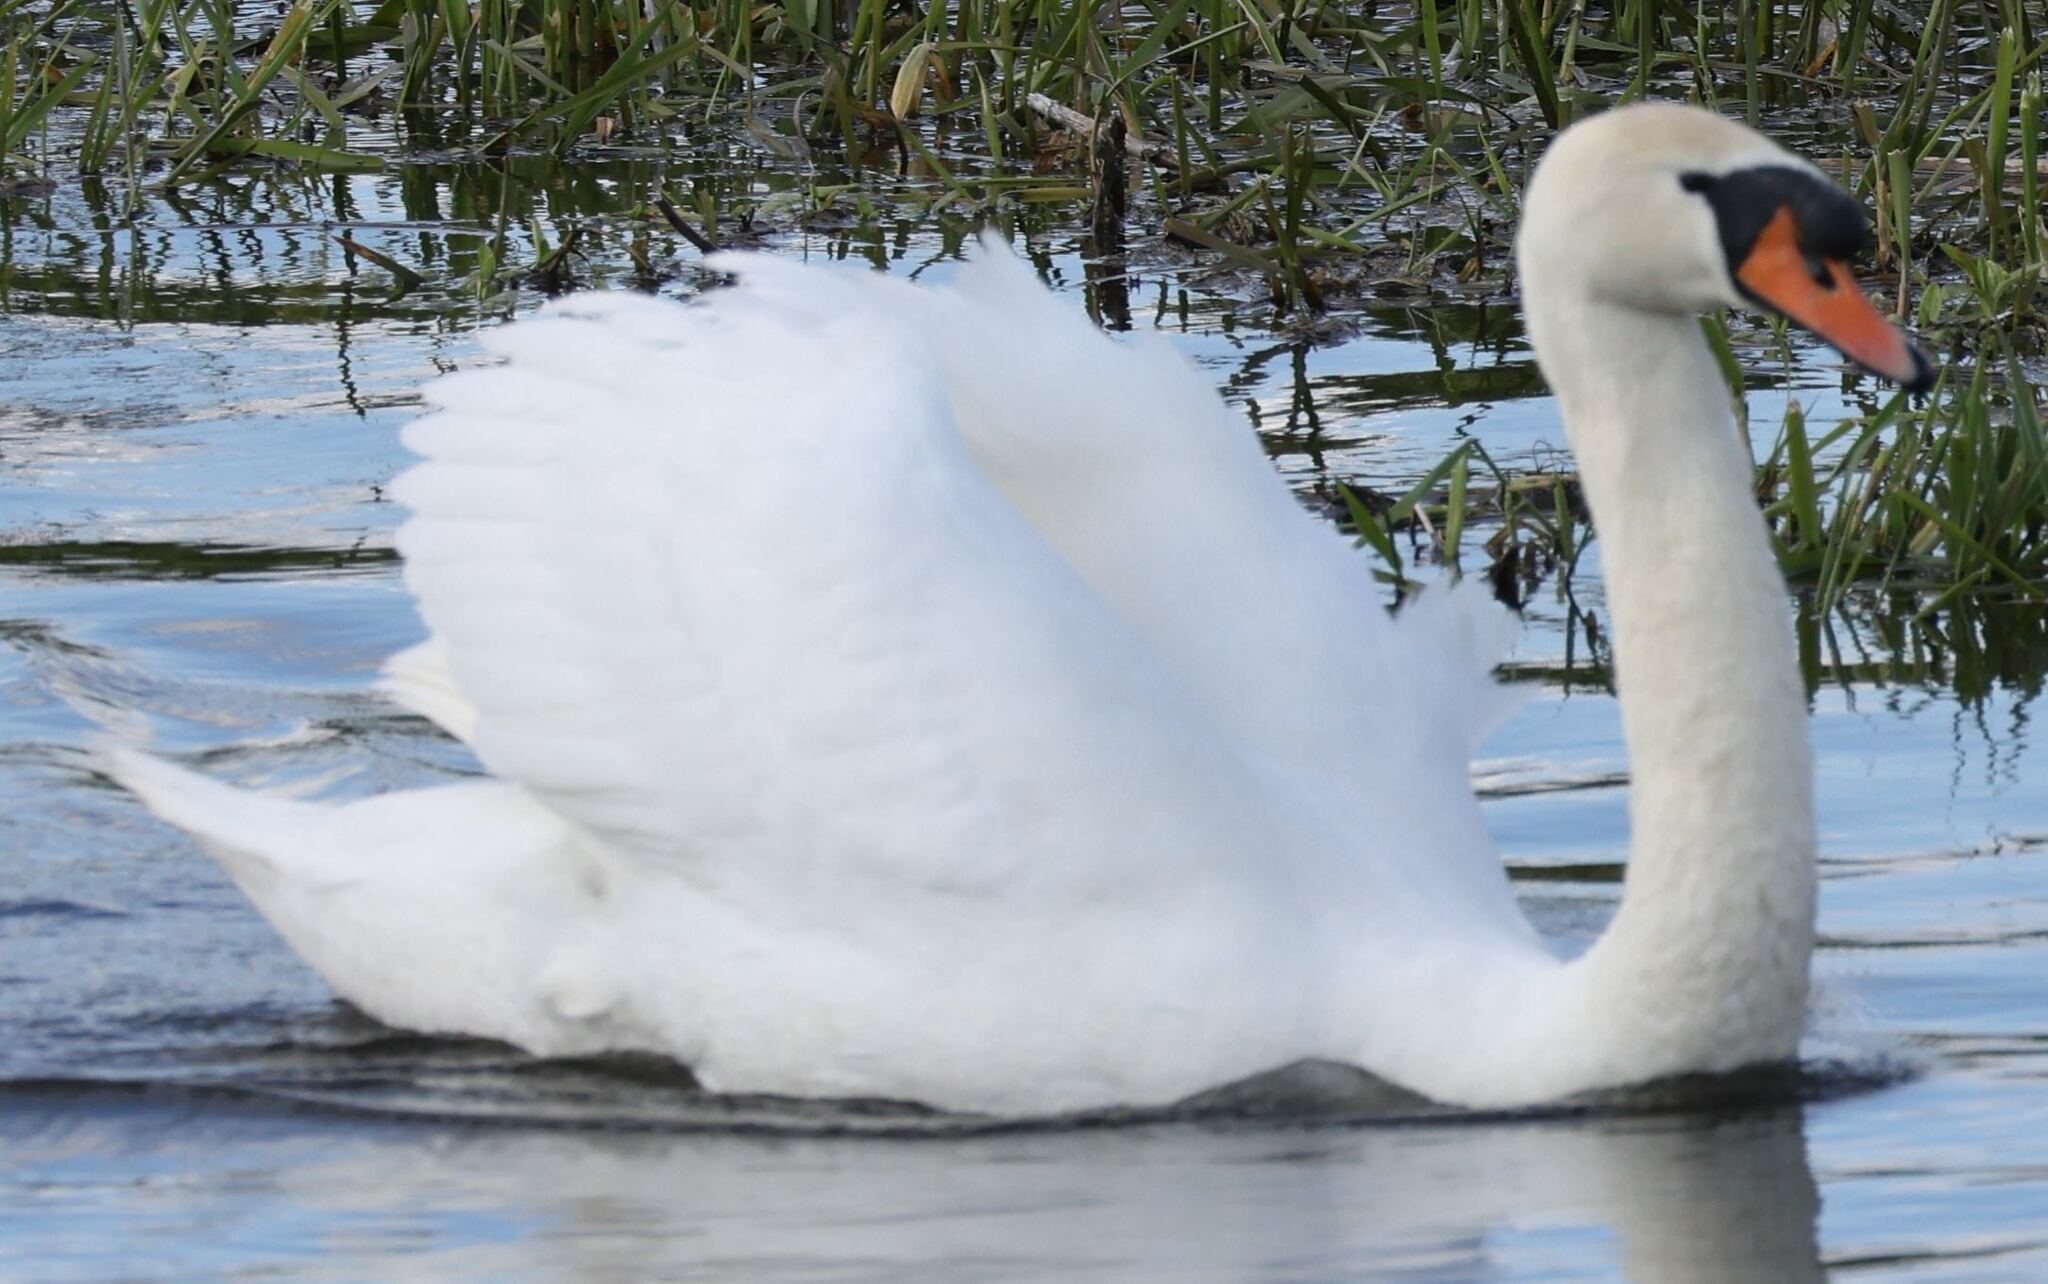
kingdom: Animalia
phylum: Chordata
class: Aves
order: Anseriformes
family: Anatidae
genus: Cygnus
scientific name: Cygnus olor
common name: Mute swan
